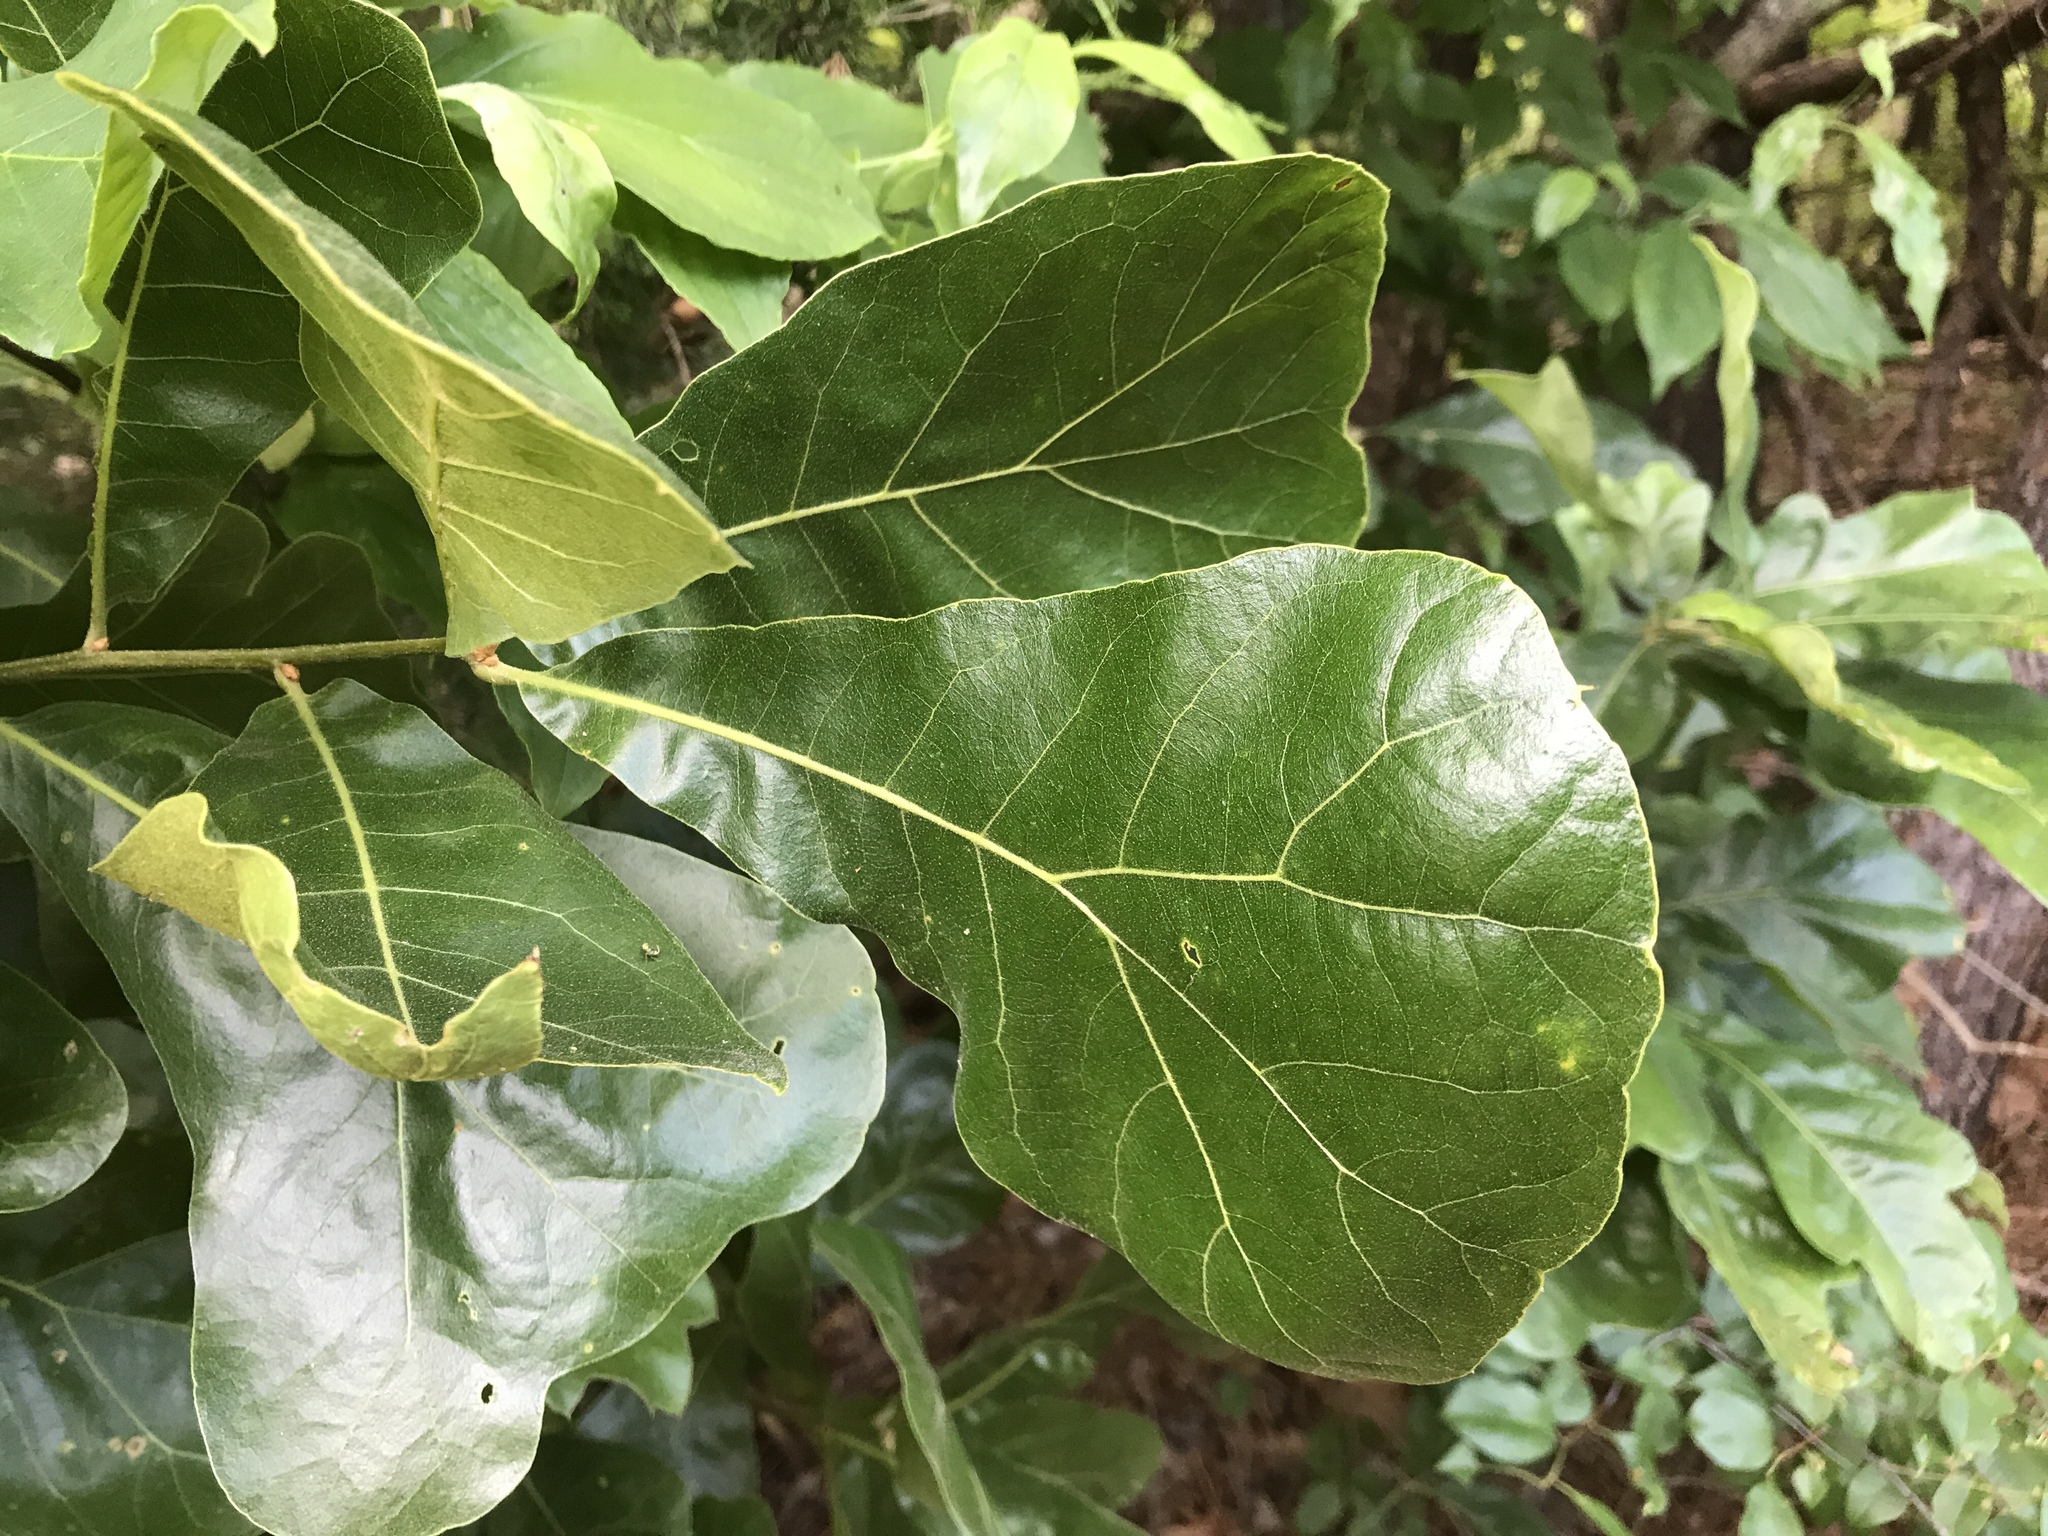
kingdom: Plantae
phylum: Tracheophyta
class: Magnoliopsida
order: Fagales
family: Fagaceae
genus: Quercus
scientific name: Quercus marilandica
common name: Blackjack oak
